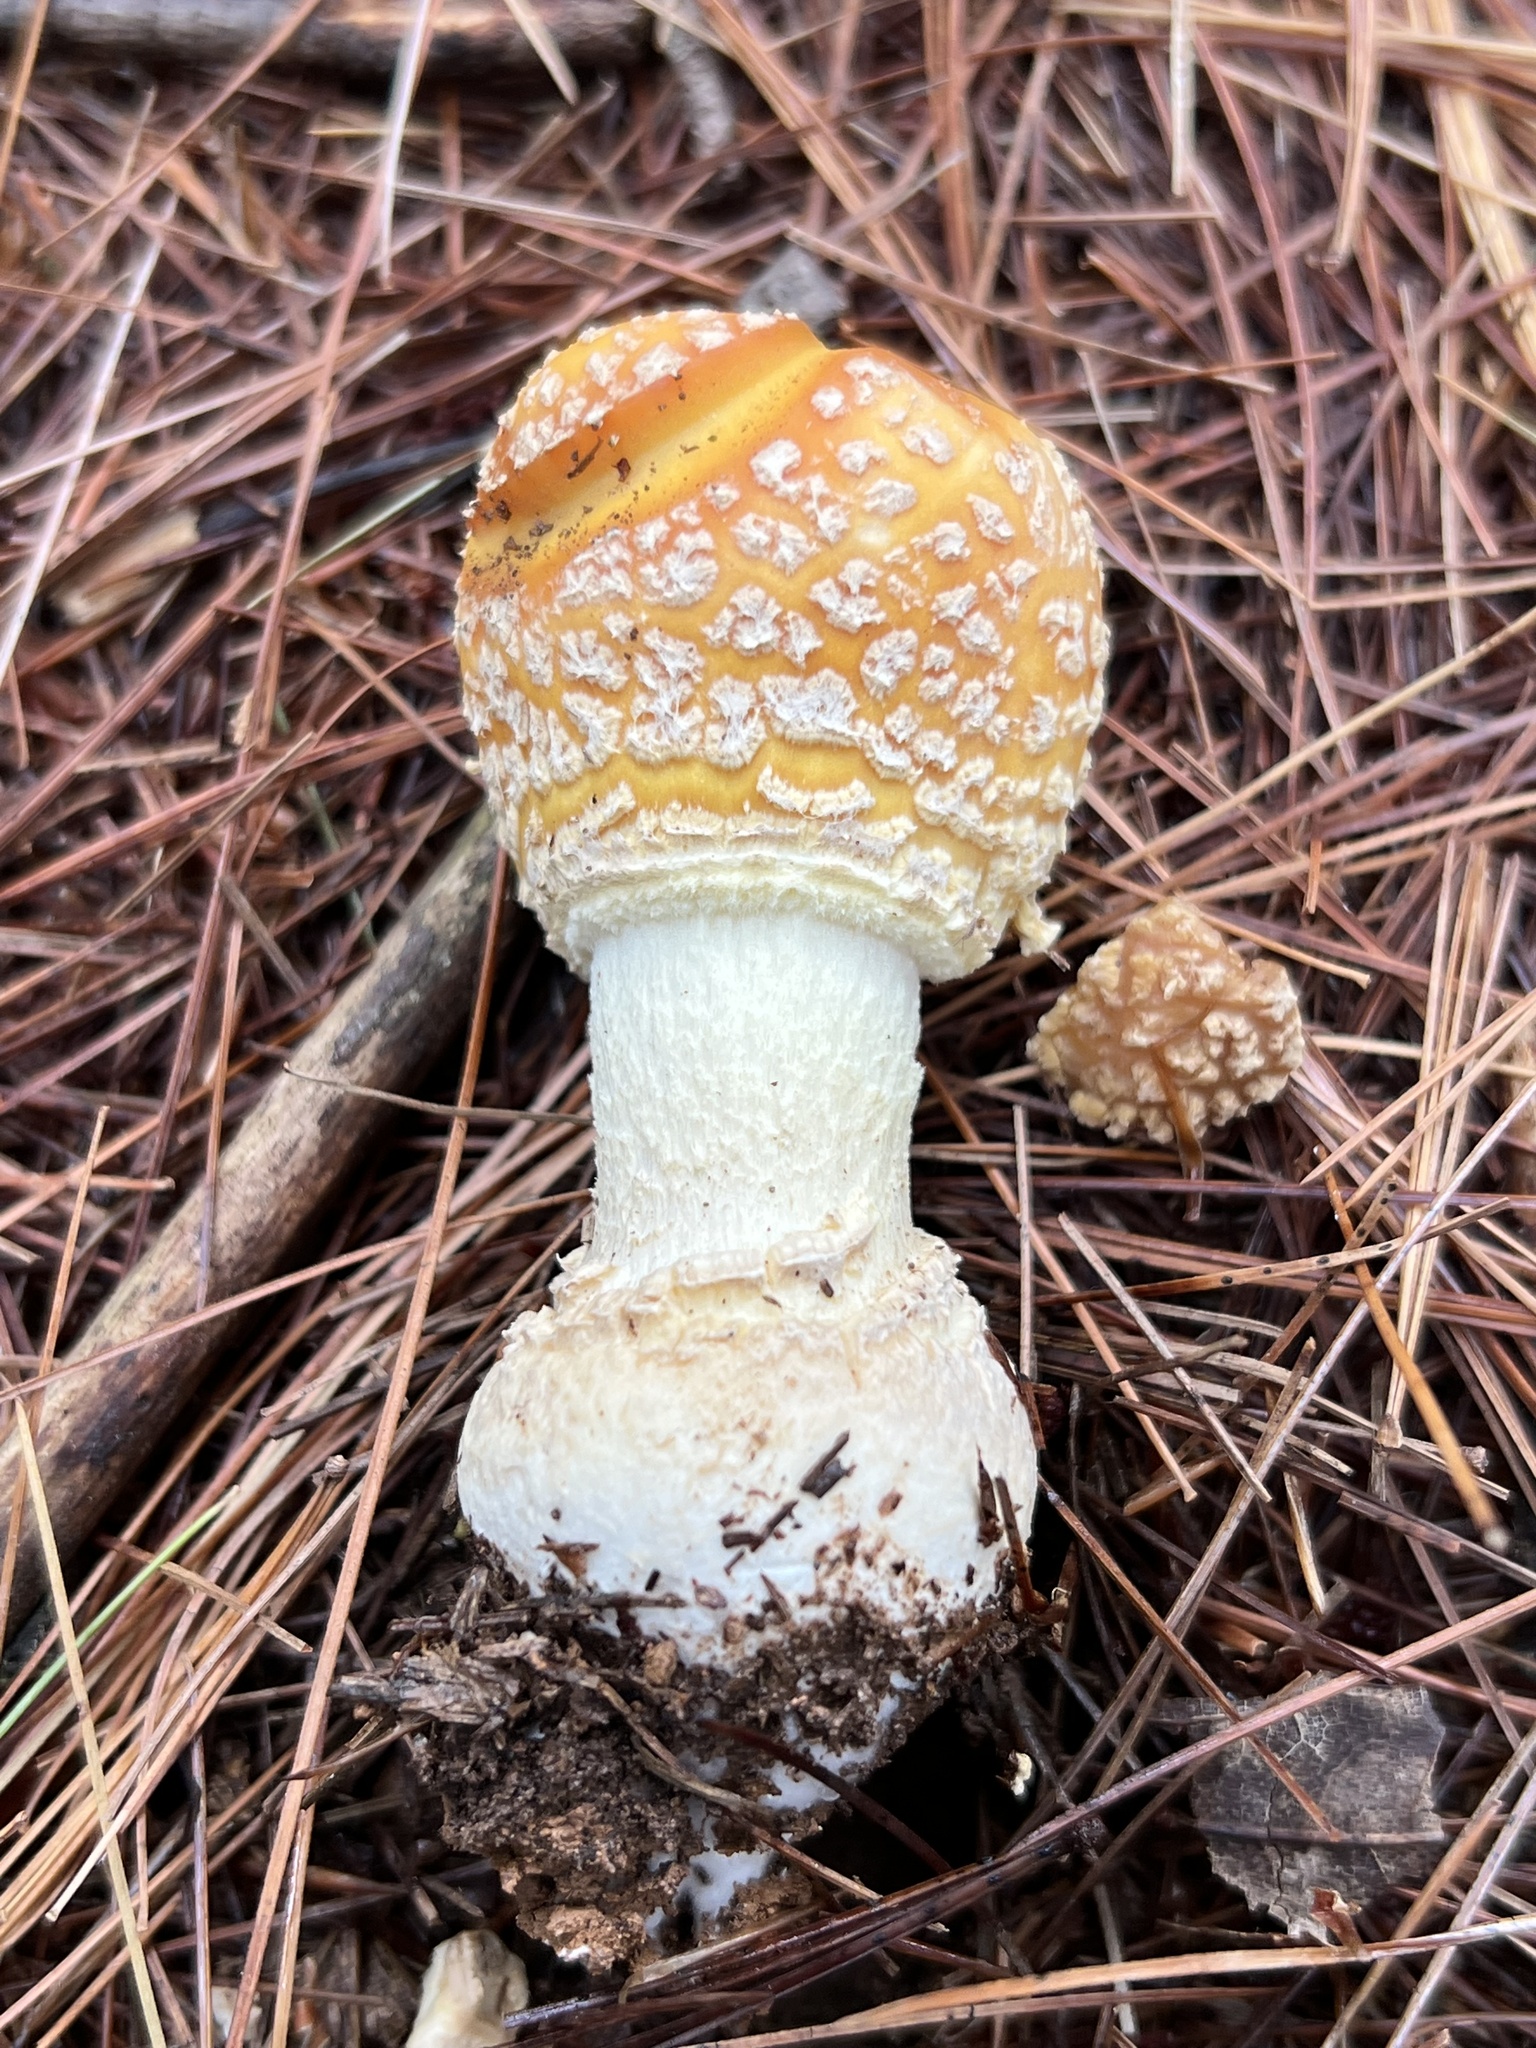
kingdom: Fungi
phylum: Basidiomycota
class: Agaricomycetes
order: Agaricales
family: Amanitaceae
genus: Amanita
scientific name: Amanita muscaria
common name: Fly agaric
